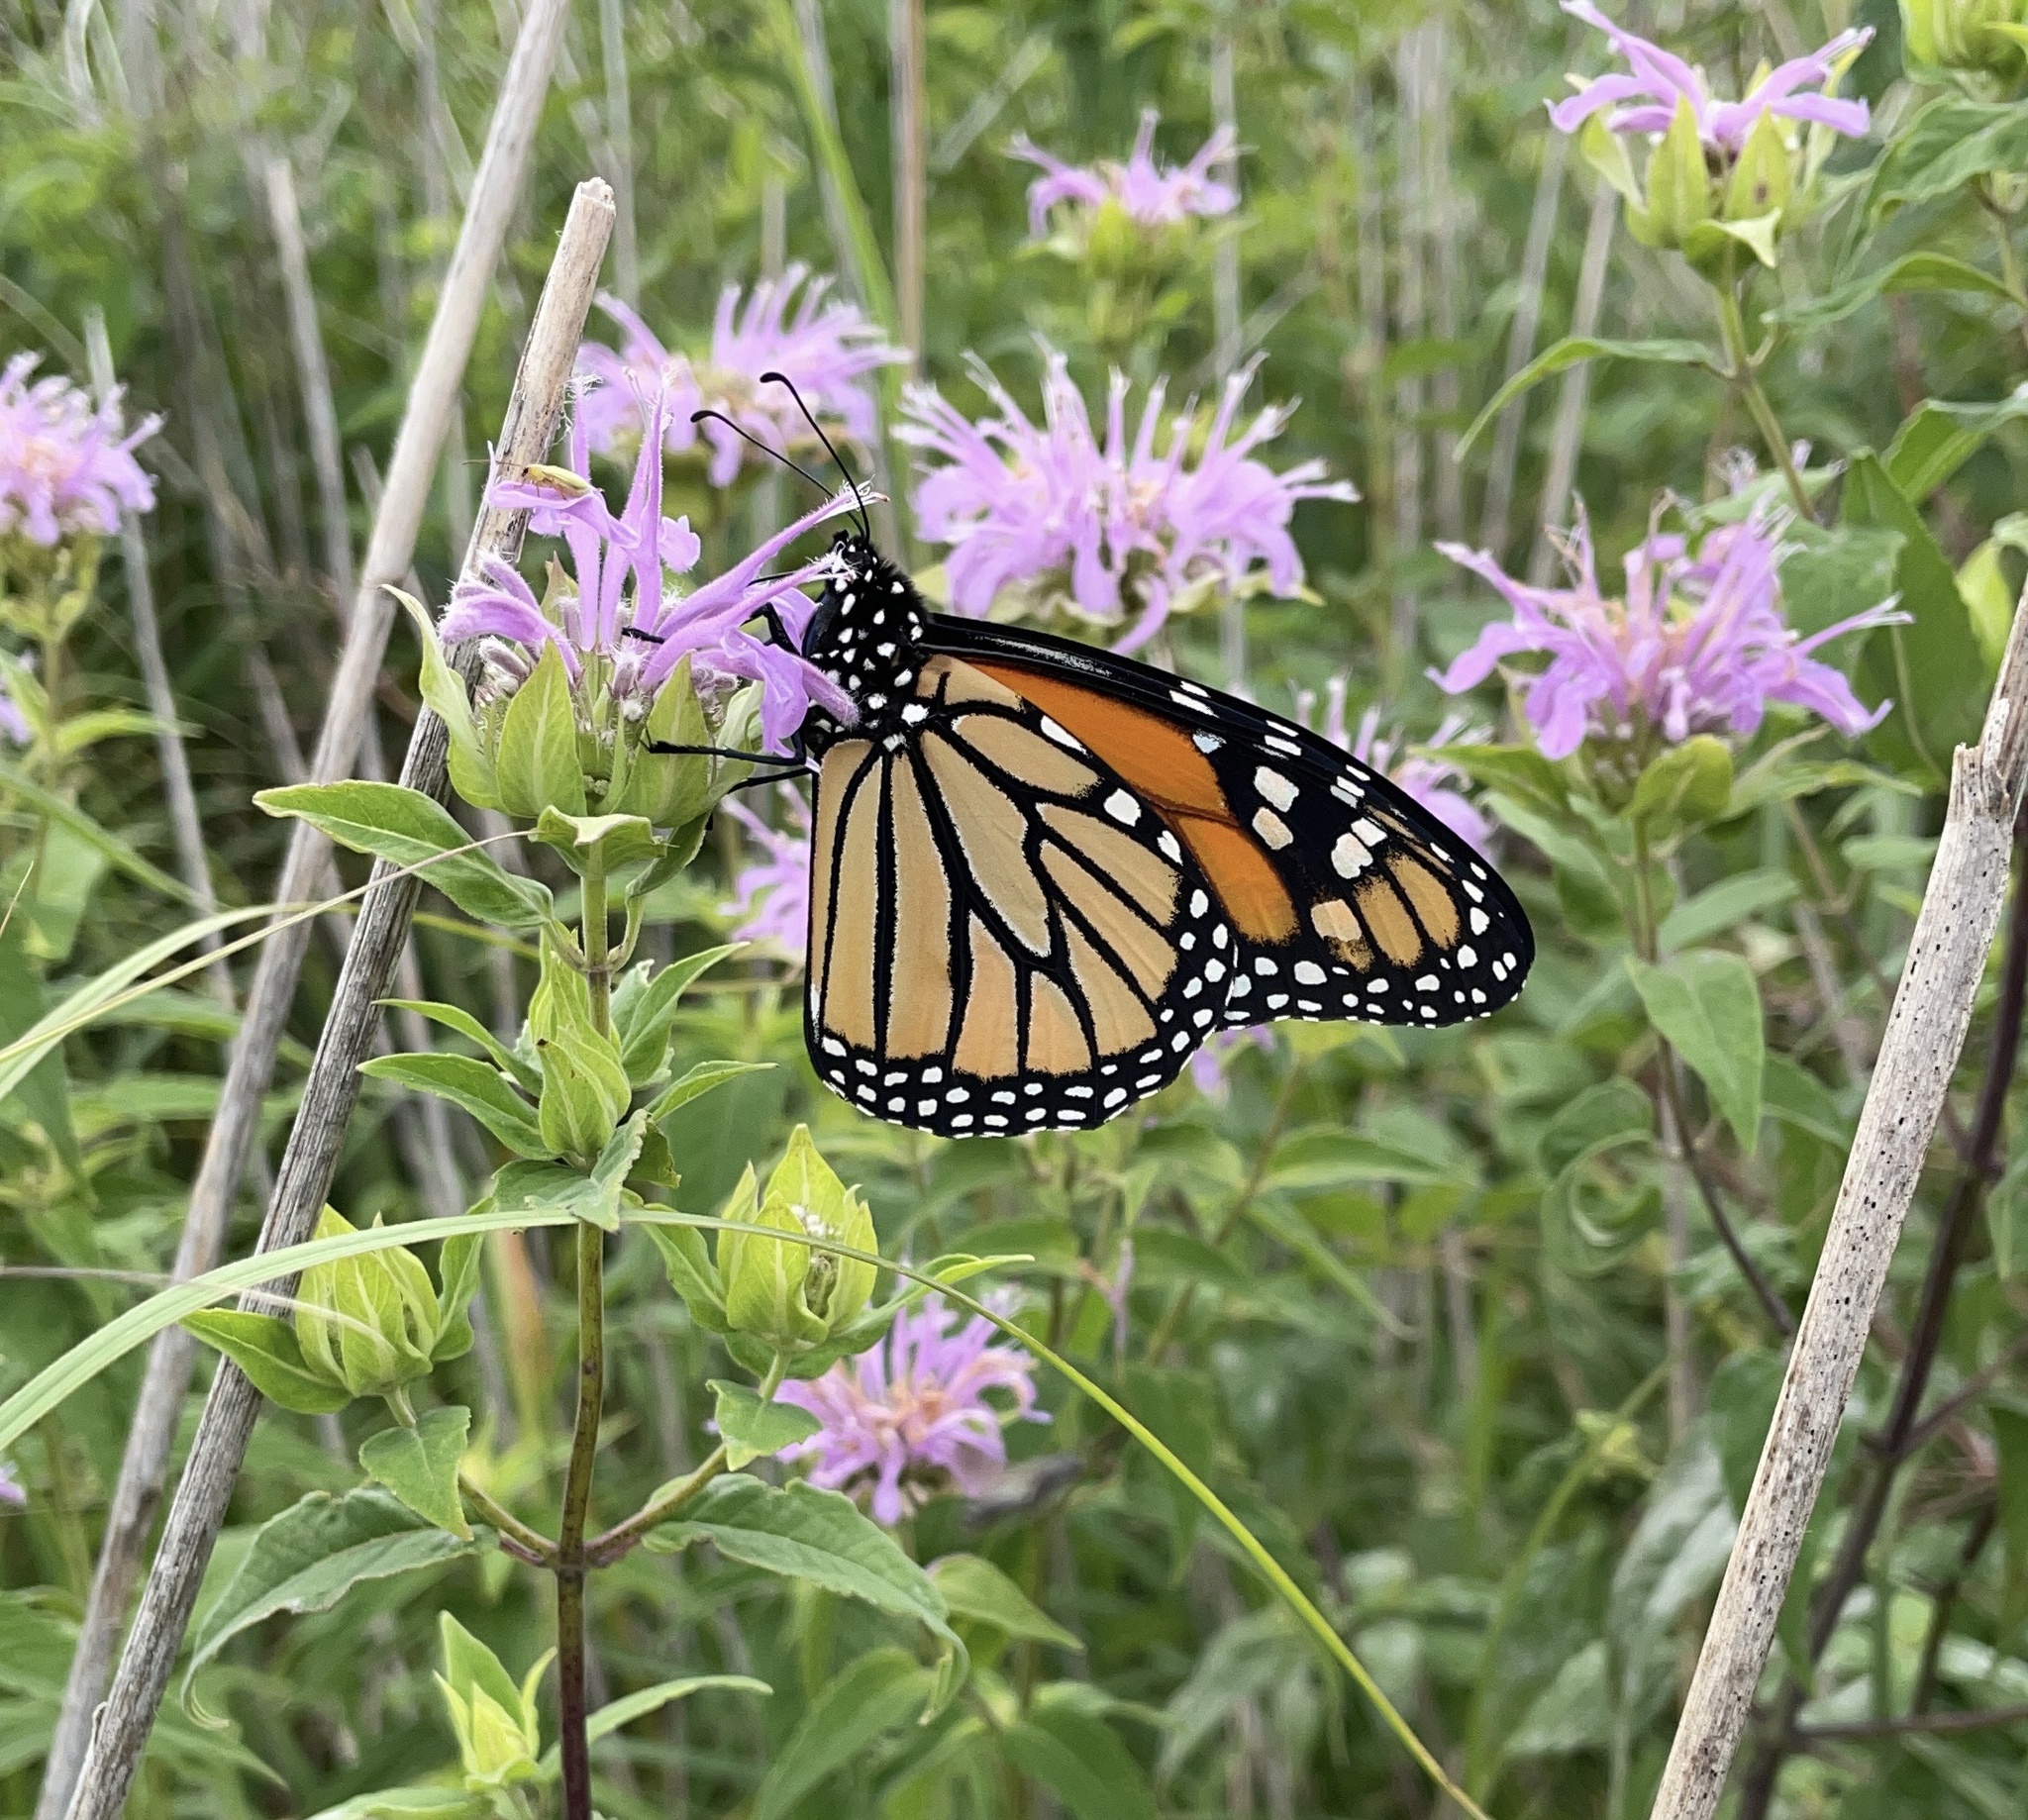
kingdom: Animalia
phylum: Arthropoda
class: Insecta
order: Lepidoptera
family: Nymphalidae
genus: Danaus
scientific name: Danaus plexippus
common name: Monarch
